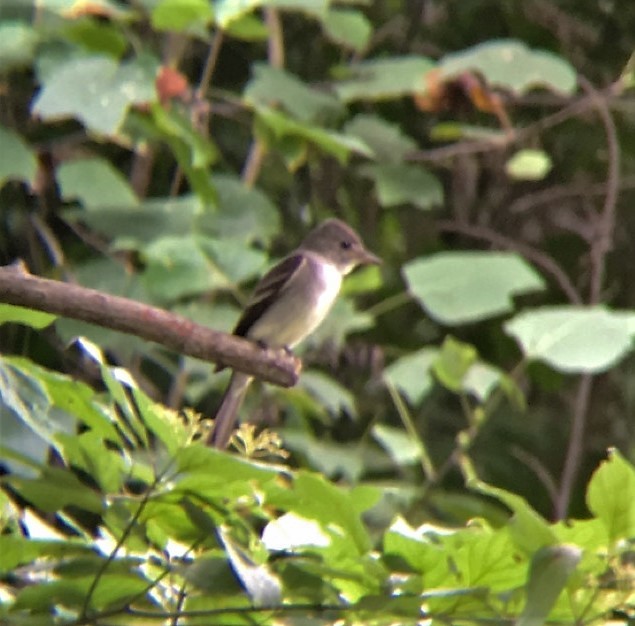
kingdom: Animalia
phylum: Chordata
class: Aves
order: Passeriformes
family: Tyrannidae
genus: Contopus
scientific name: Contopus virens
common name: Eastern wood-pewee
